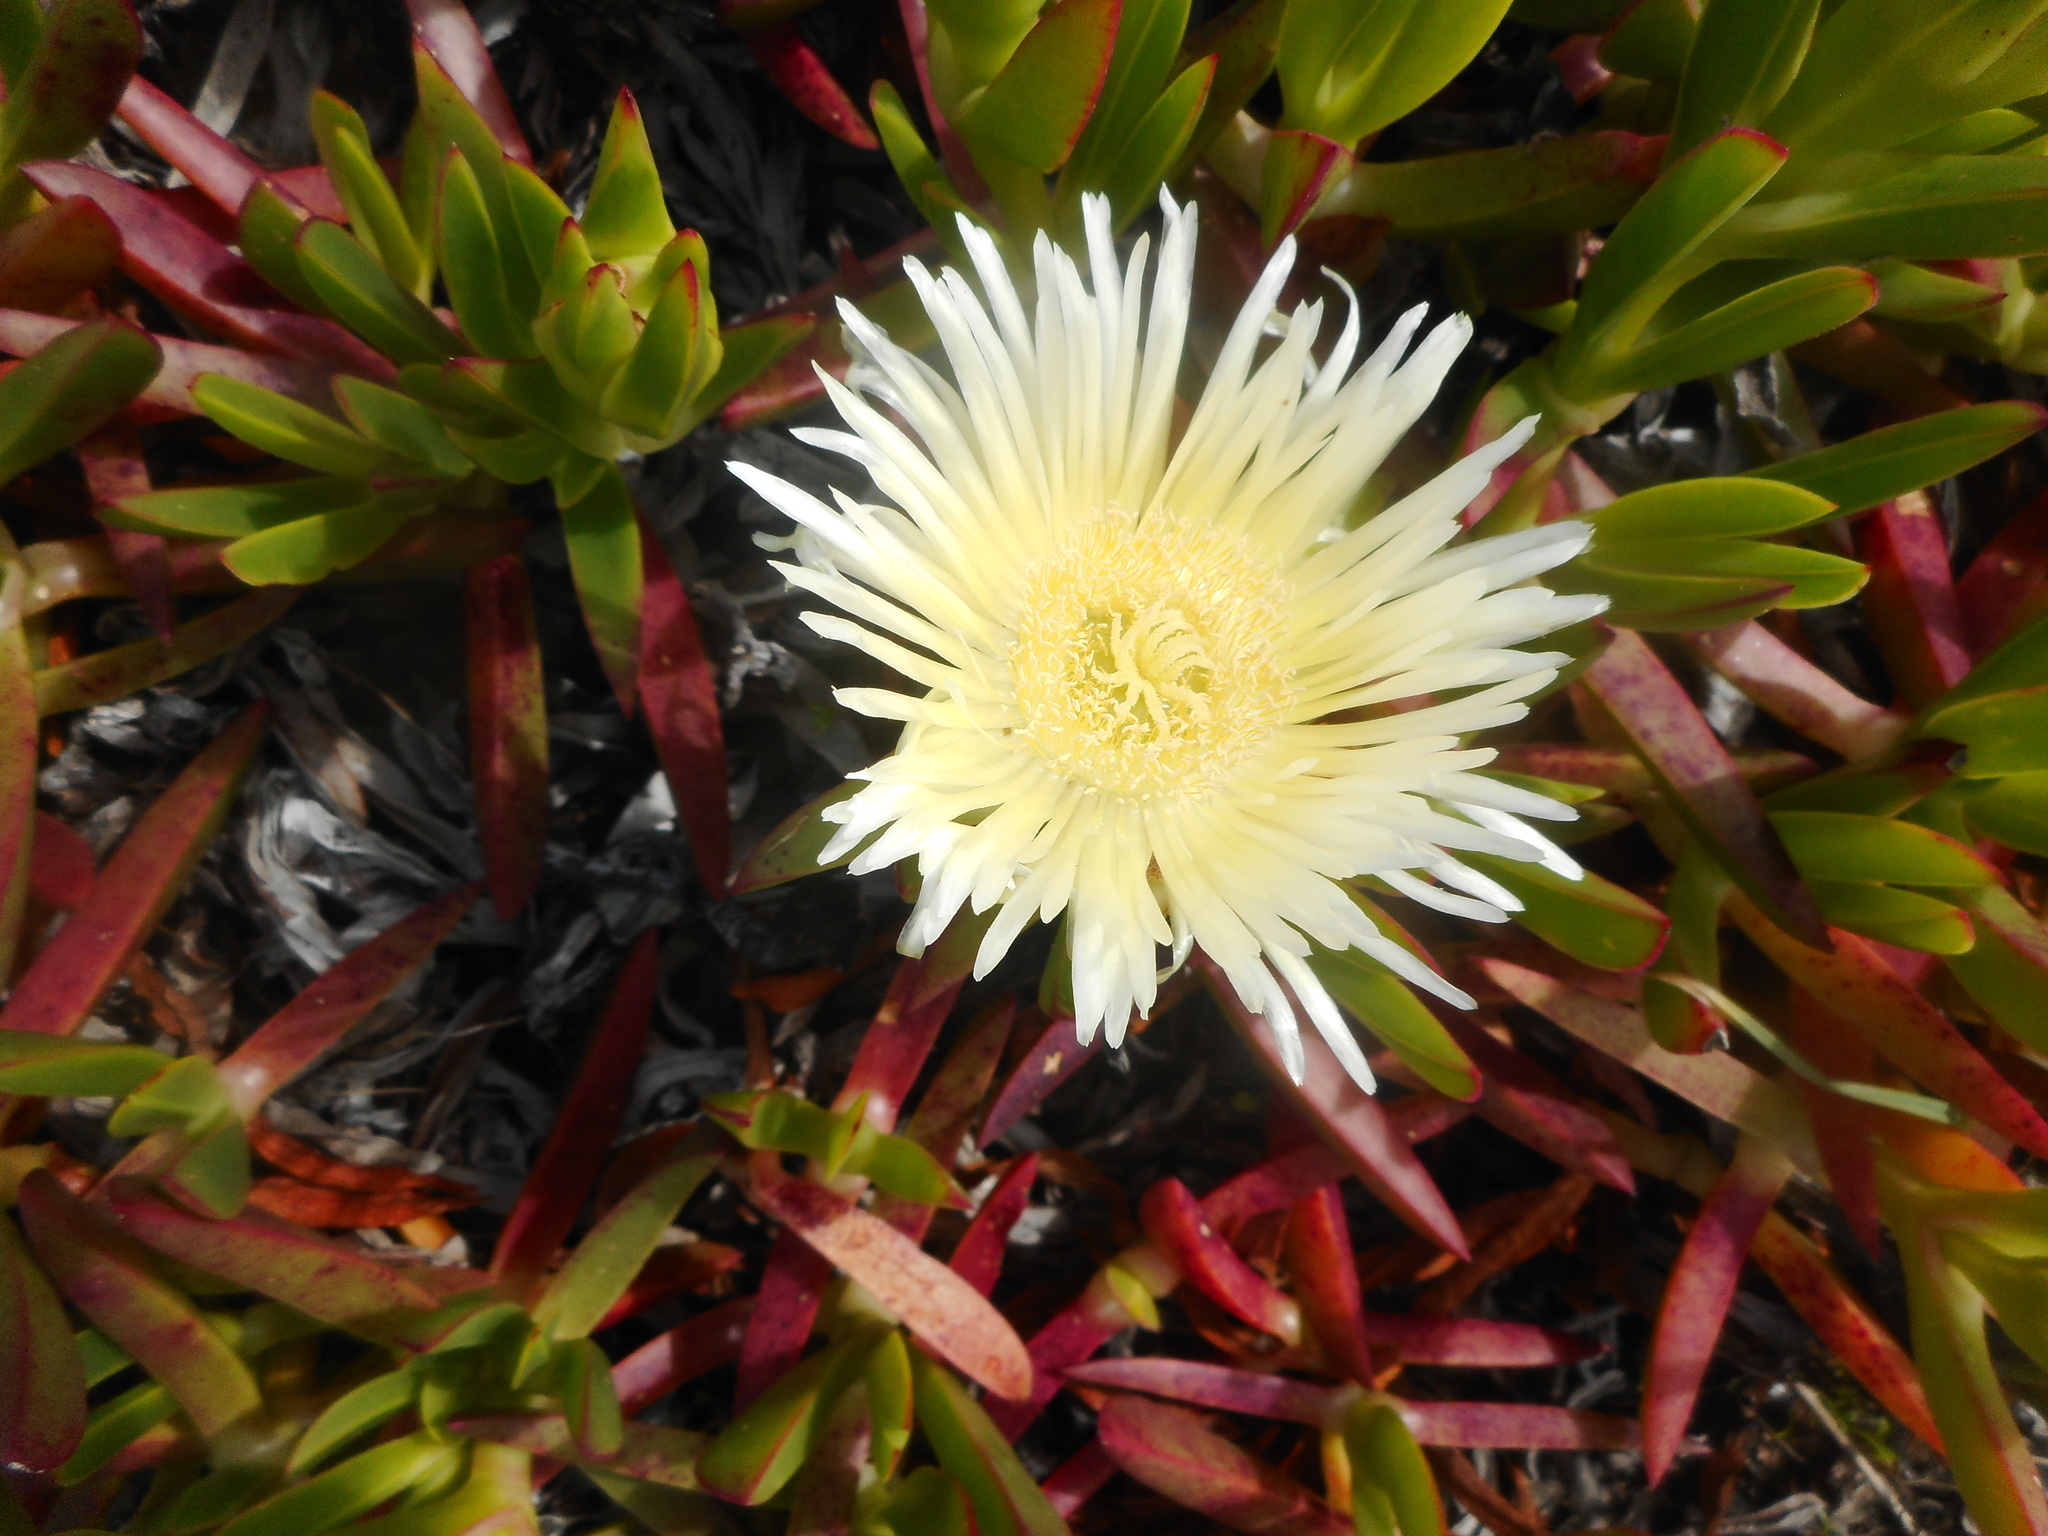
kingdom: Plantae
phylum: Tracheophyta
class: Magnoliopsida
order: Caryophyllales
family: Aizoaceae
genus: Carpobrotus
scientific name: Carpobrotus edulis
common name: Hottentot-fig
